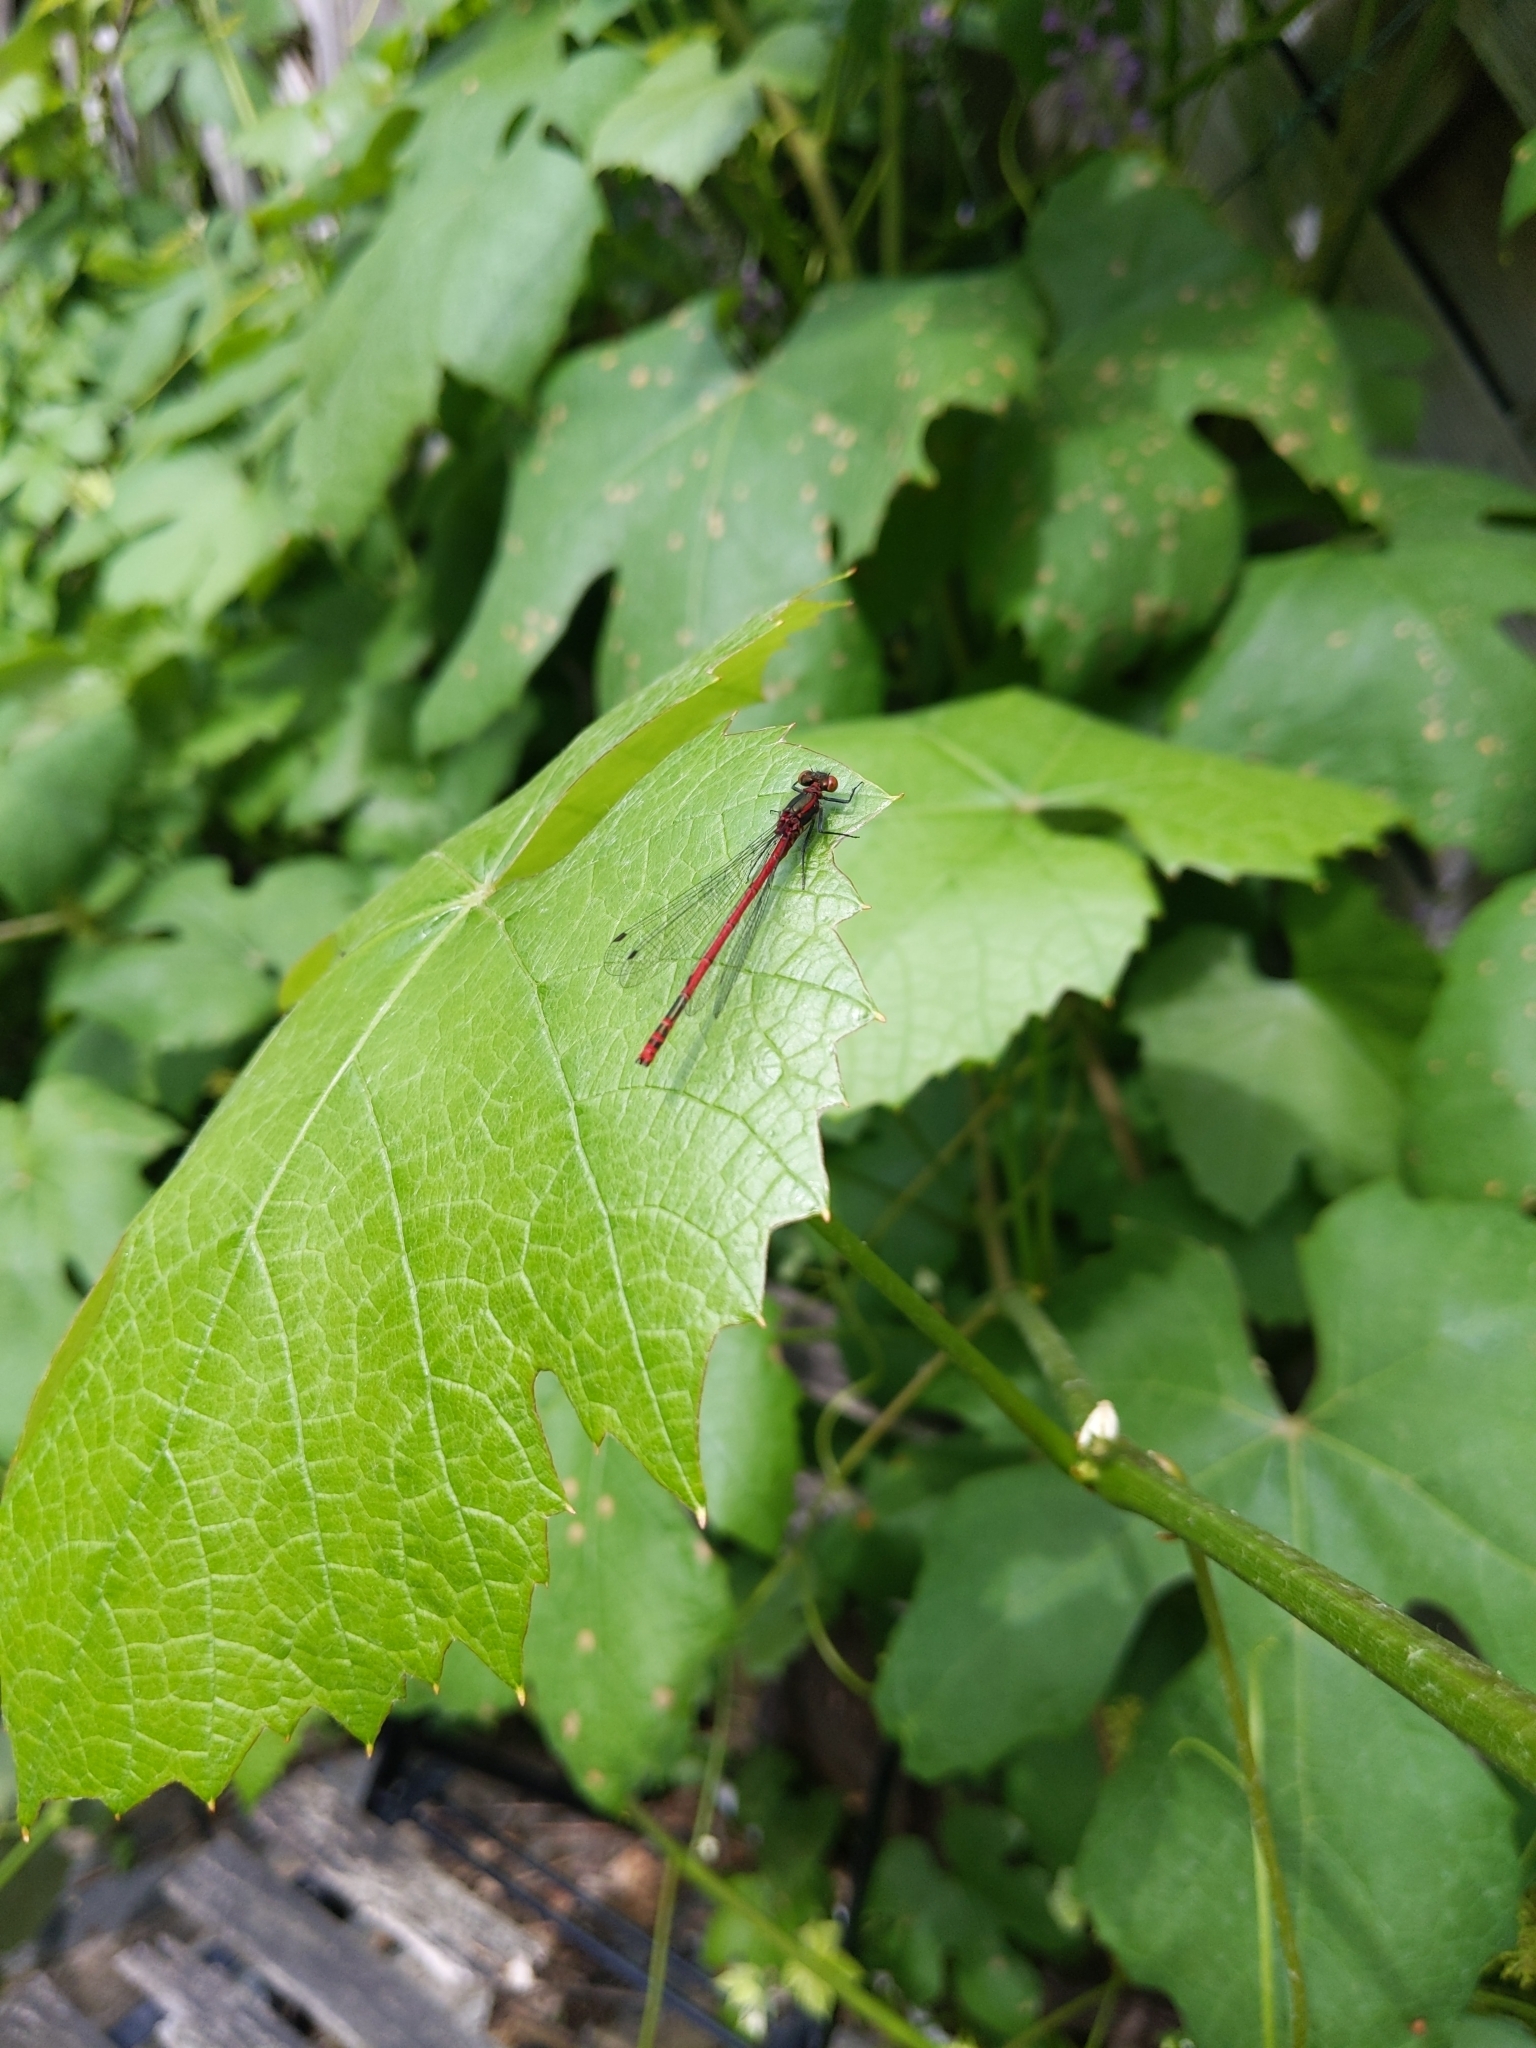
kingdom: Animalia
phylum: Arthropoda
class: Insecta
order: Odonata
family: Coenagrionidae
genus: Pyrrhosoma
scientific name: Pyrrhosoma nymphula
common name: Large red damsel
